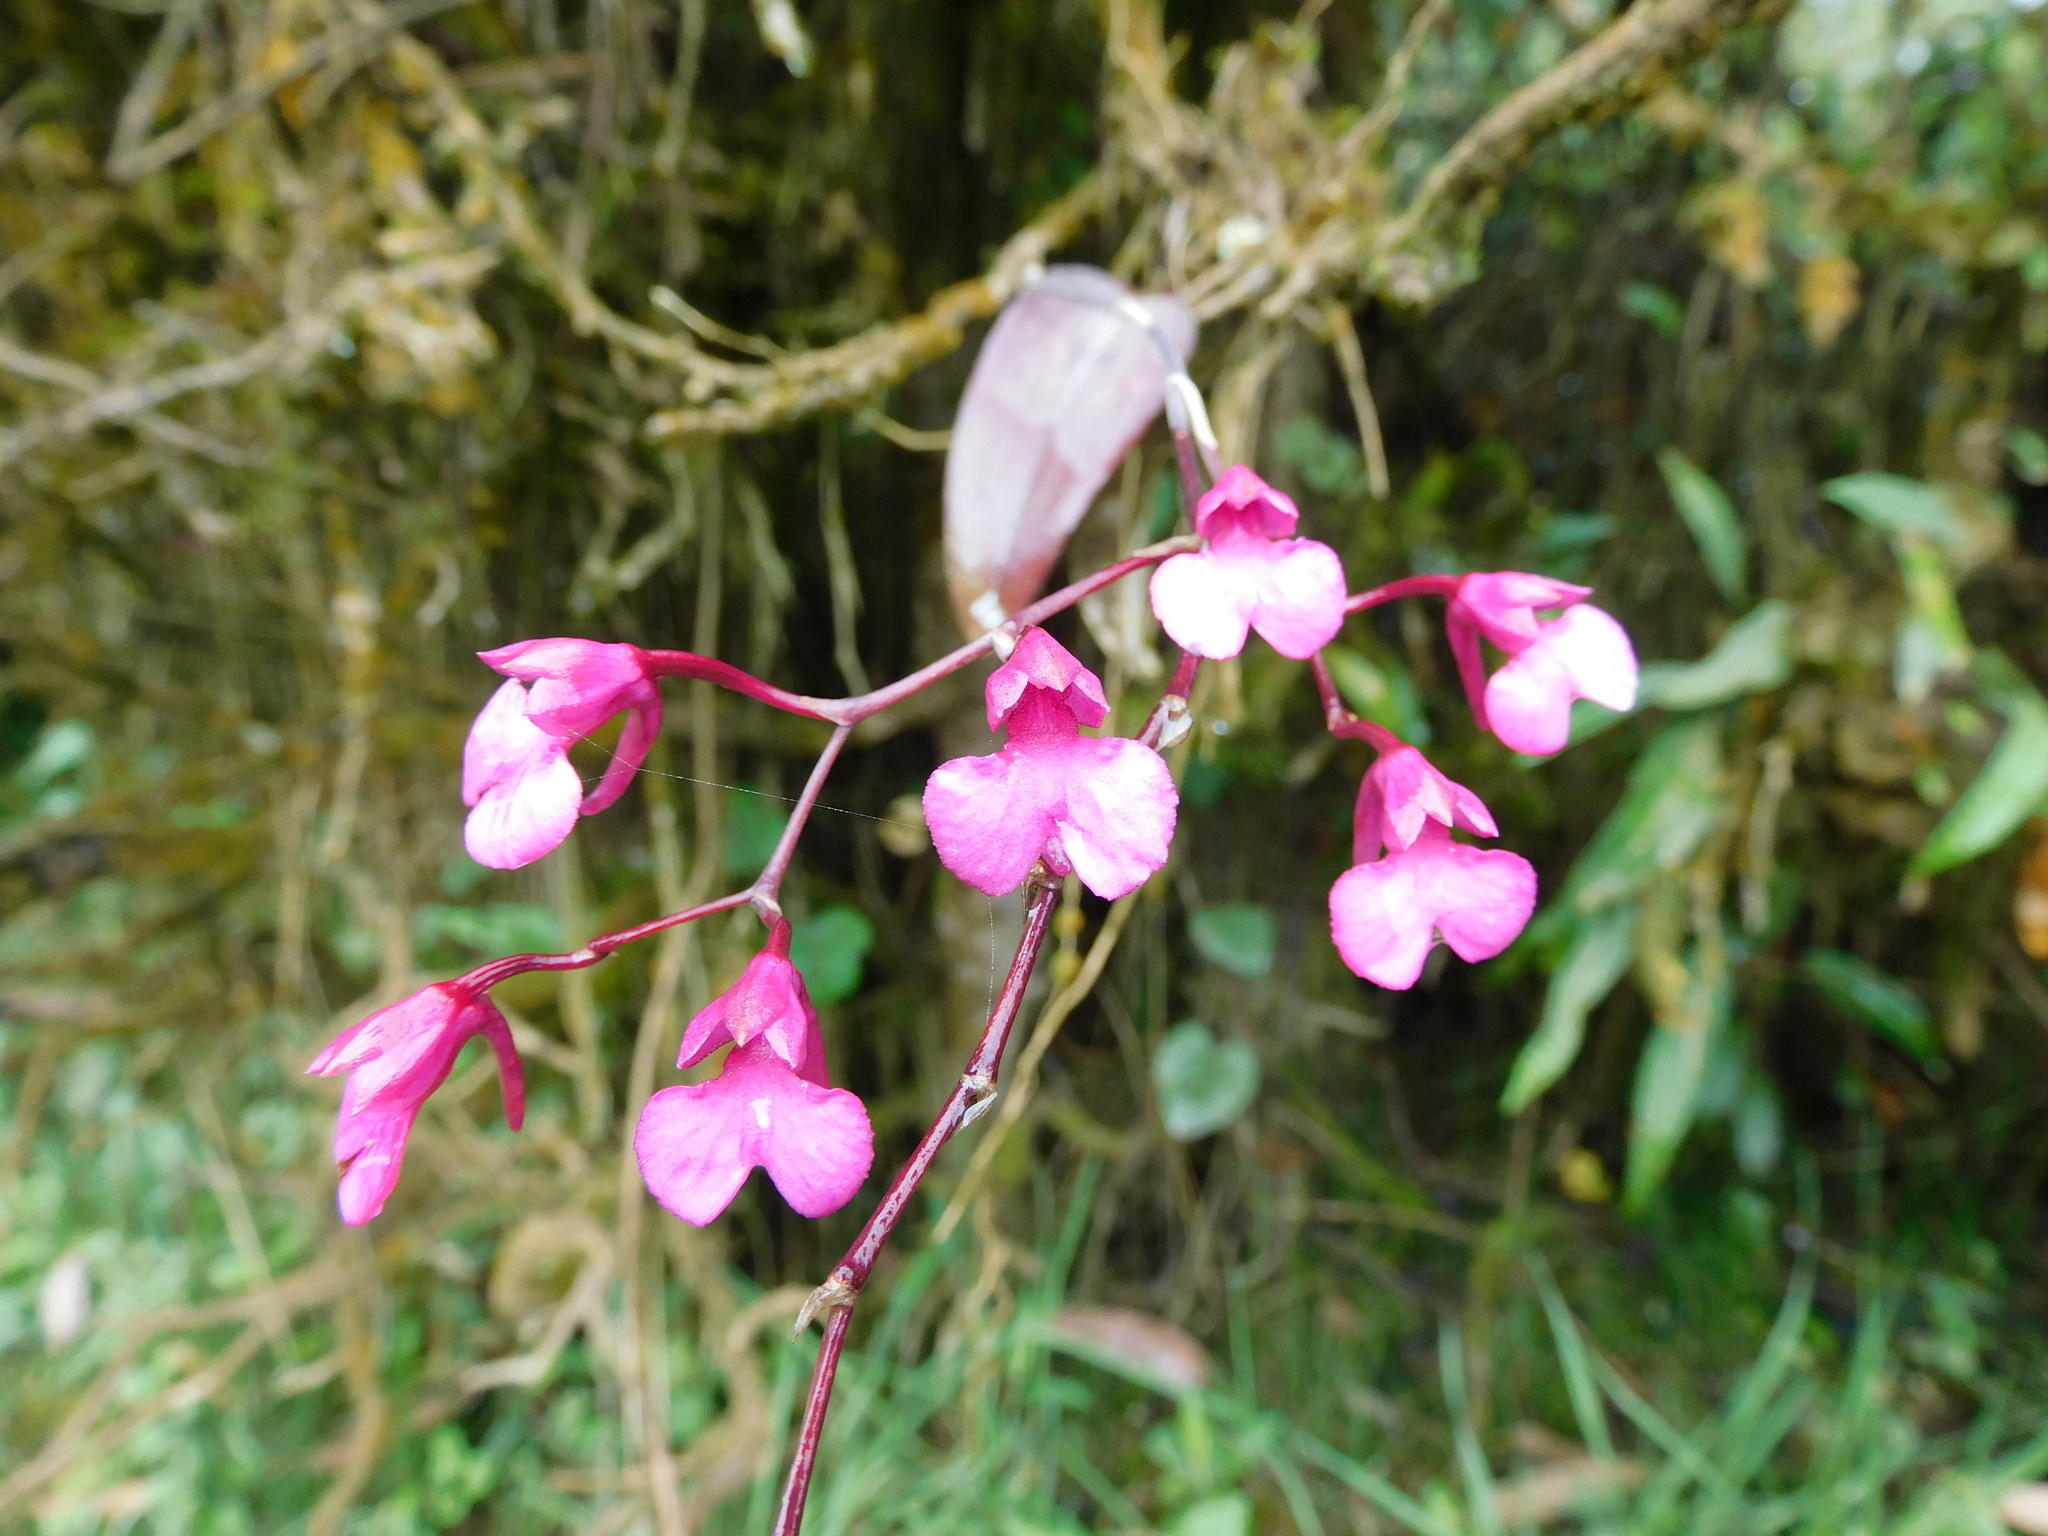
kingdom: Plantae
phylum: Tracheophyta
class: Liliopsida
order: Asparagales
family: Orchidaceae
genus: Comparettia
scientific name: Comparettia falcata
